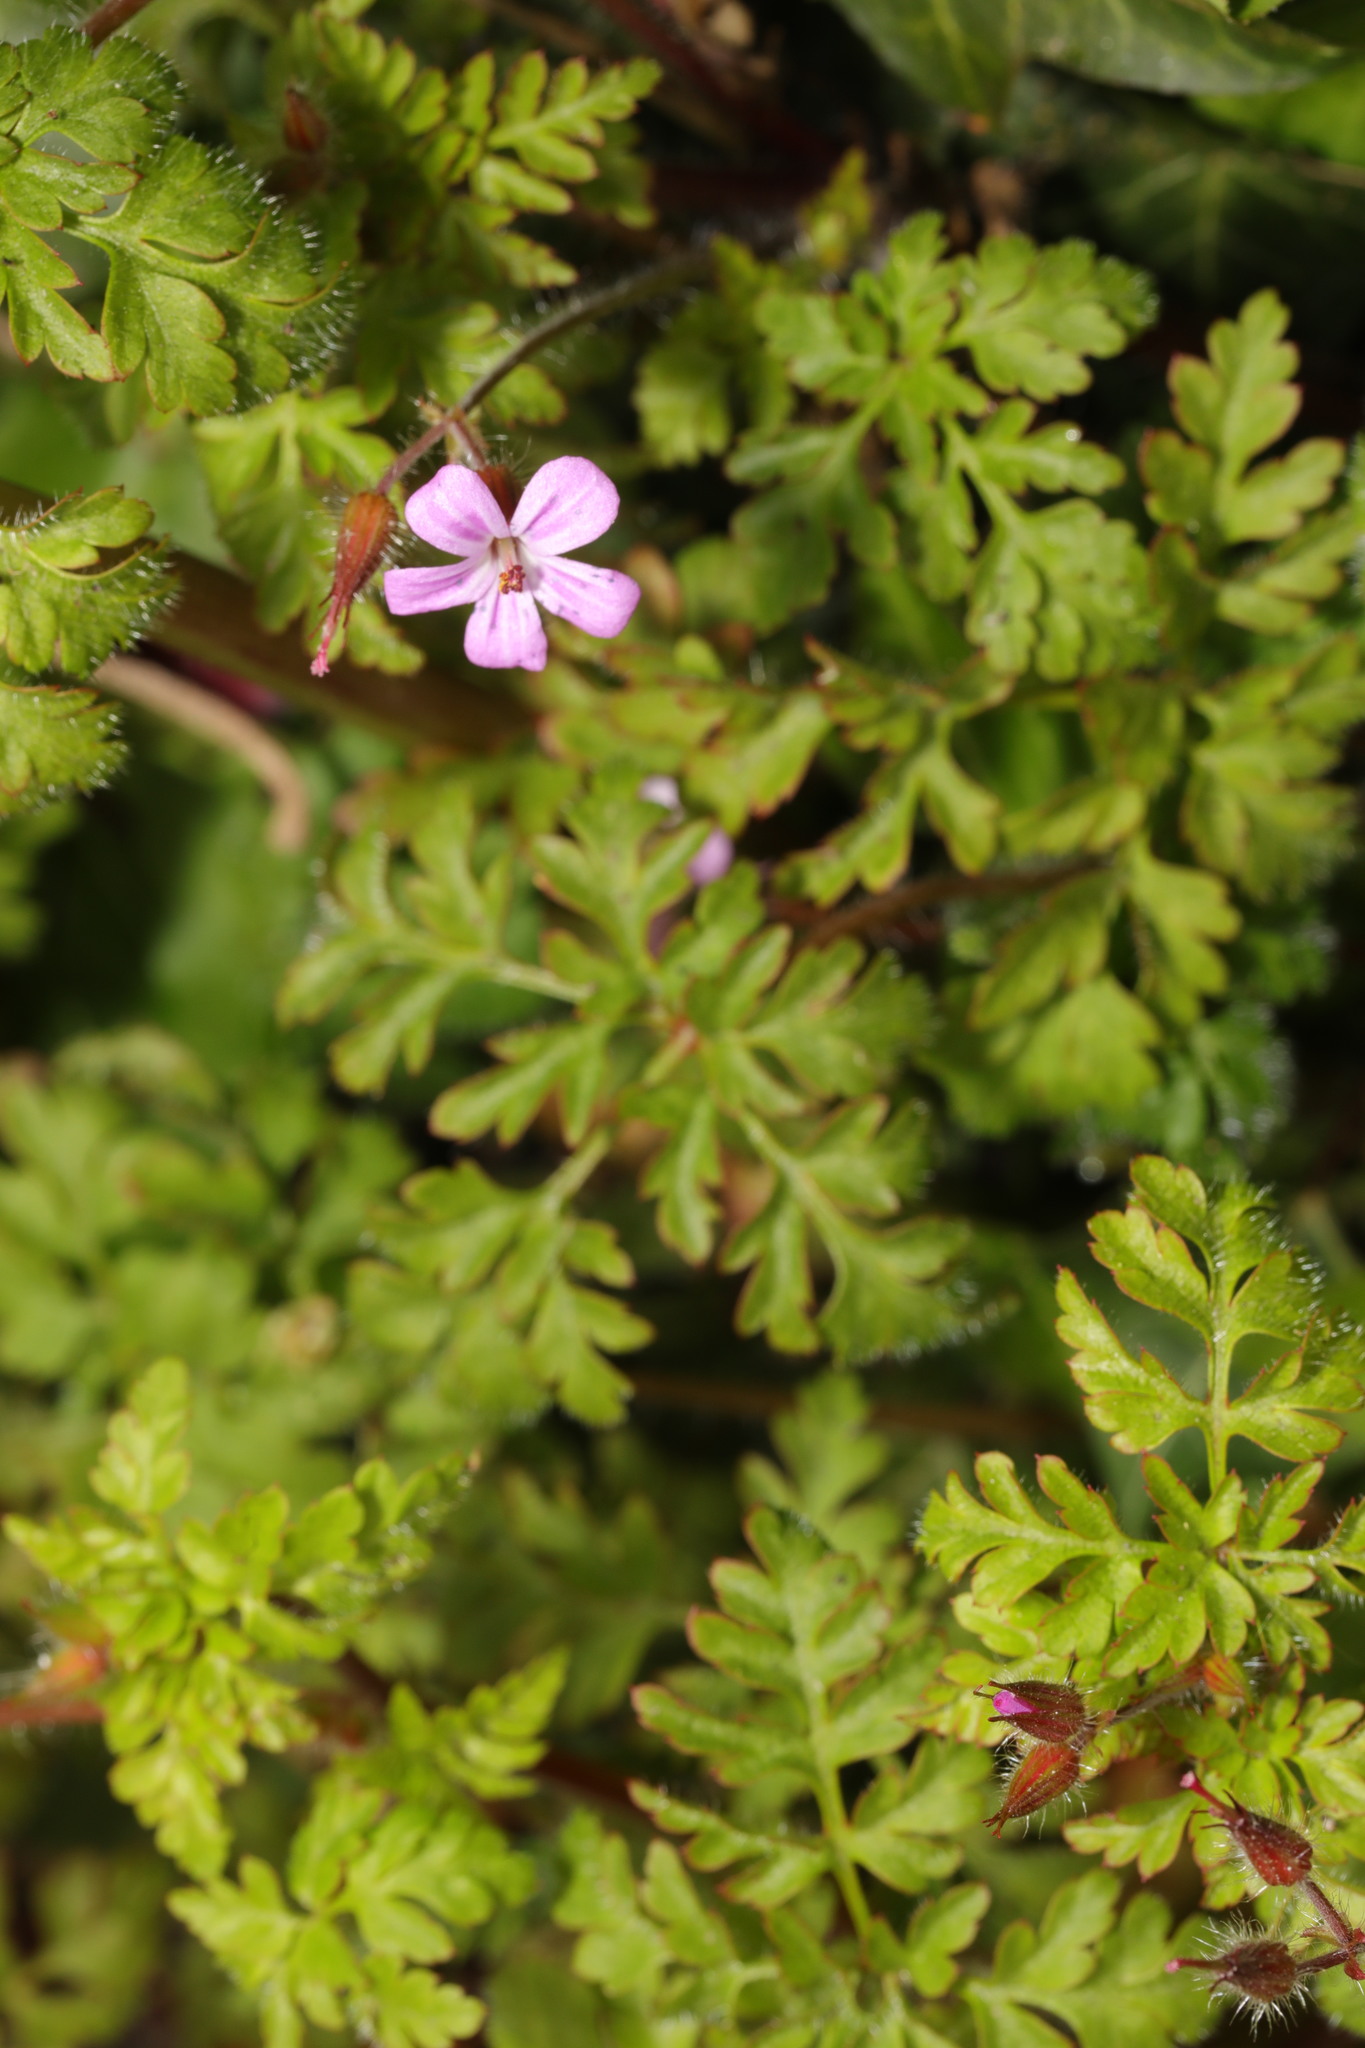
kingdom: Plantae
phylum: Tracheophyta
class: Magnoliopsida
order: Geraniales
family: Geraniaceae
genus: Geranium
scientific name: Geranium robertianum
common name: Herb-robert
